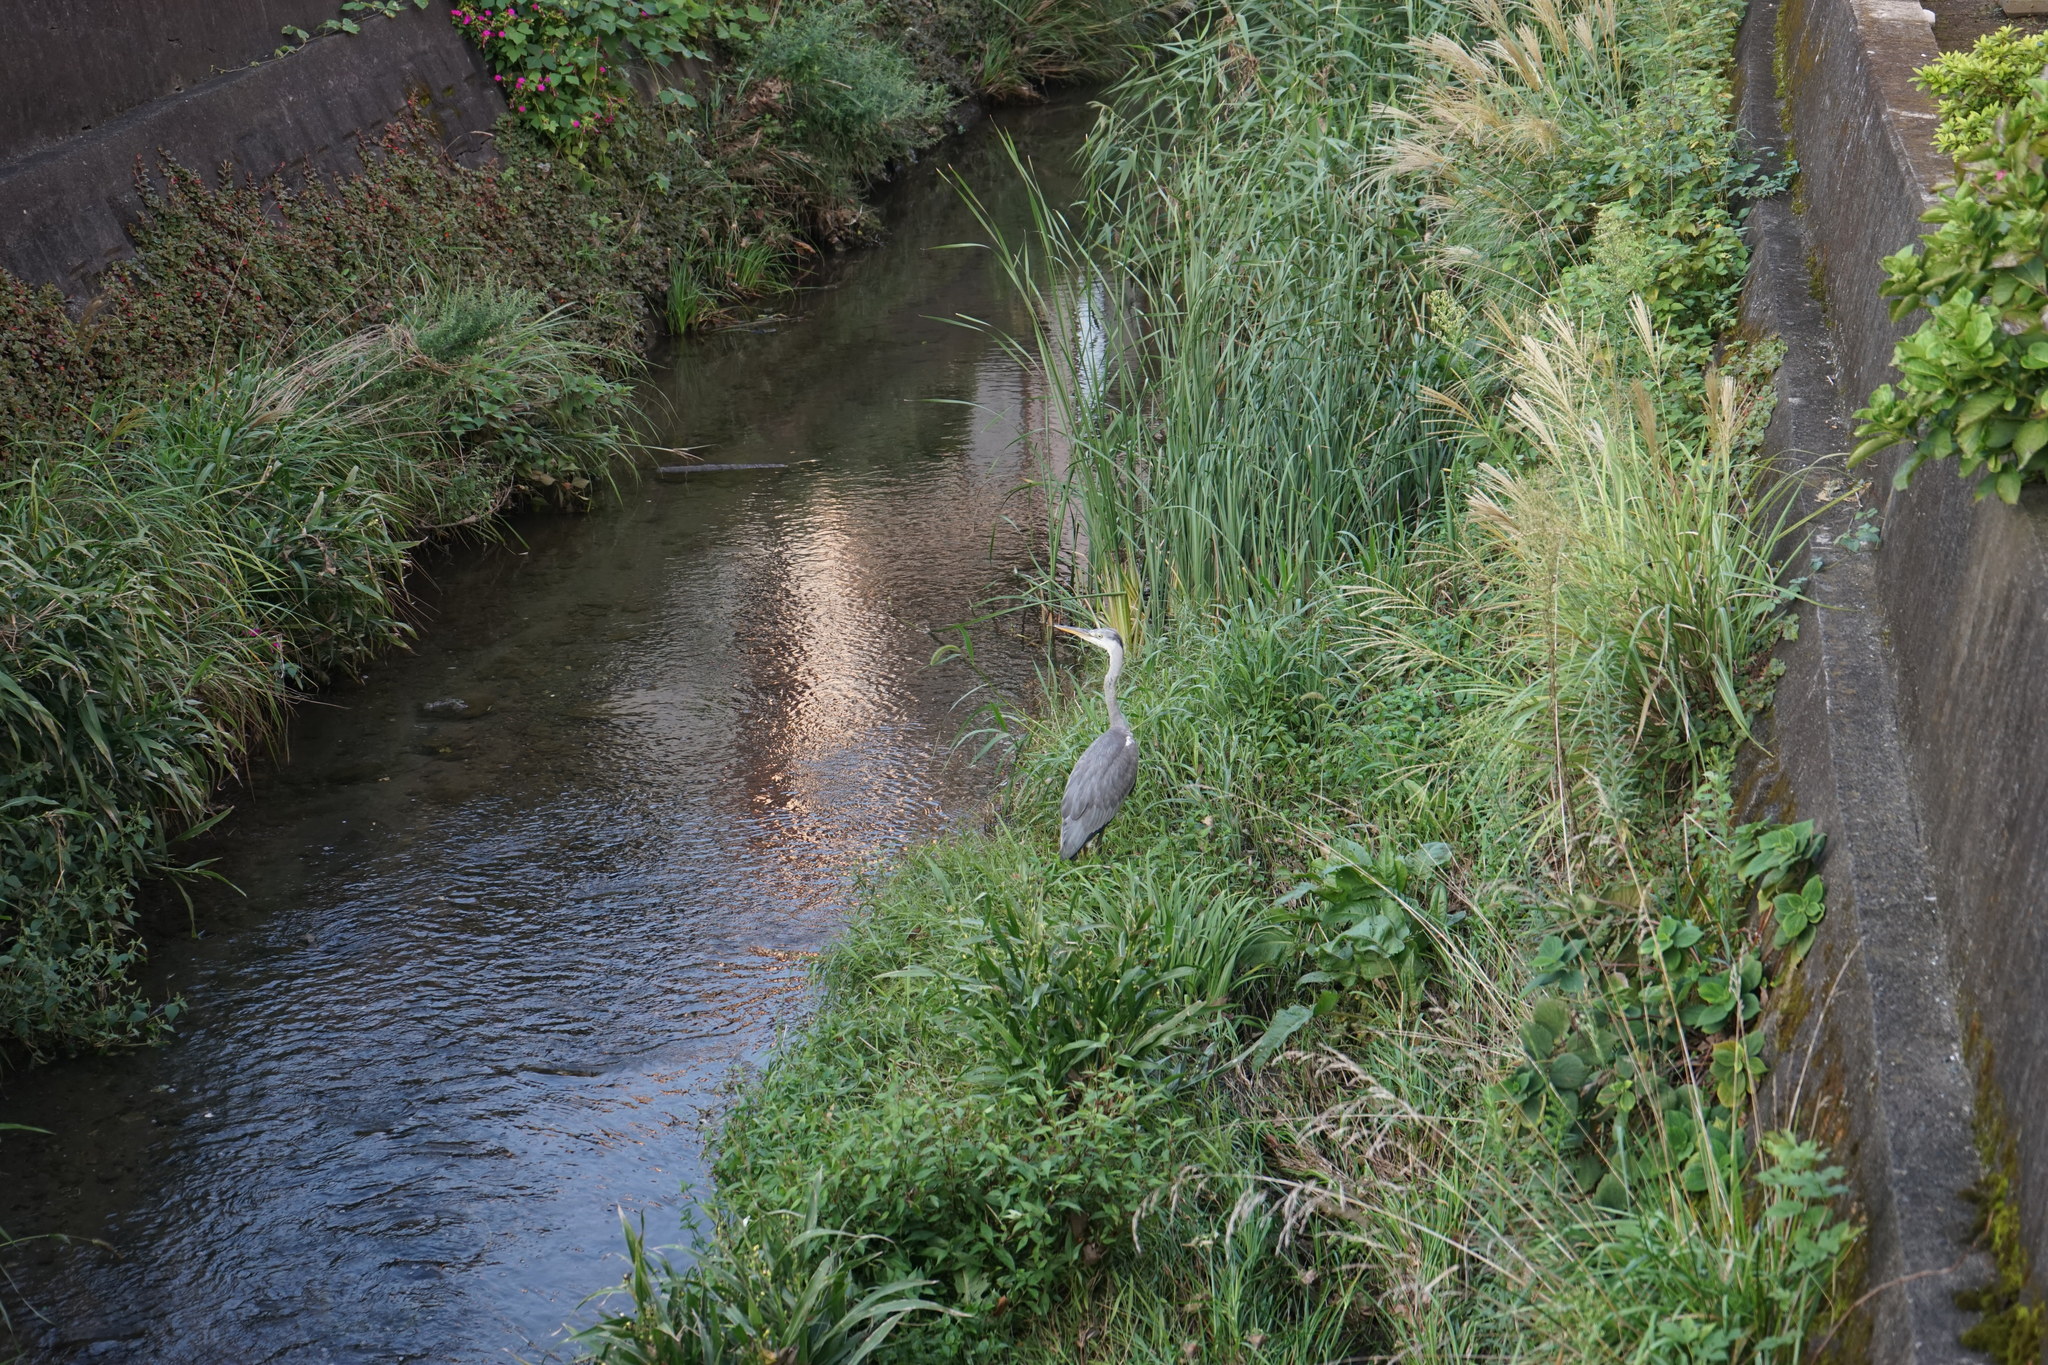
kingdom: Animalia
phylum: Chordata
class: Aves
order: Pelecaniformes
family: Ardeidae
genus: Ardea
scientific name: Ardea cinerea
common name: Grey heron
